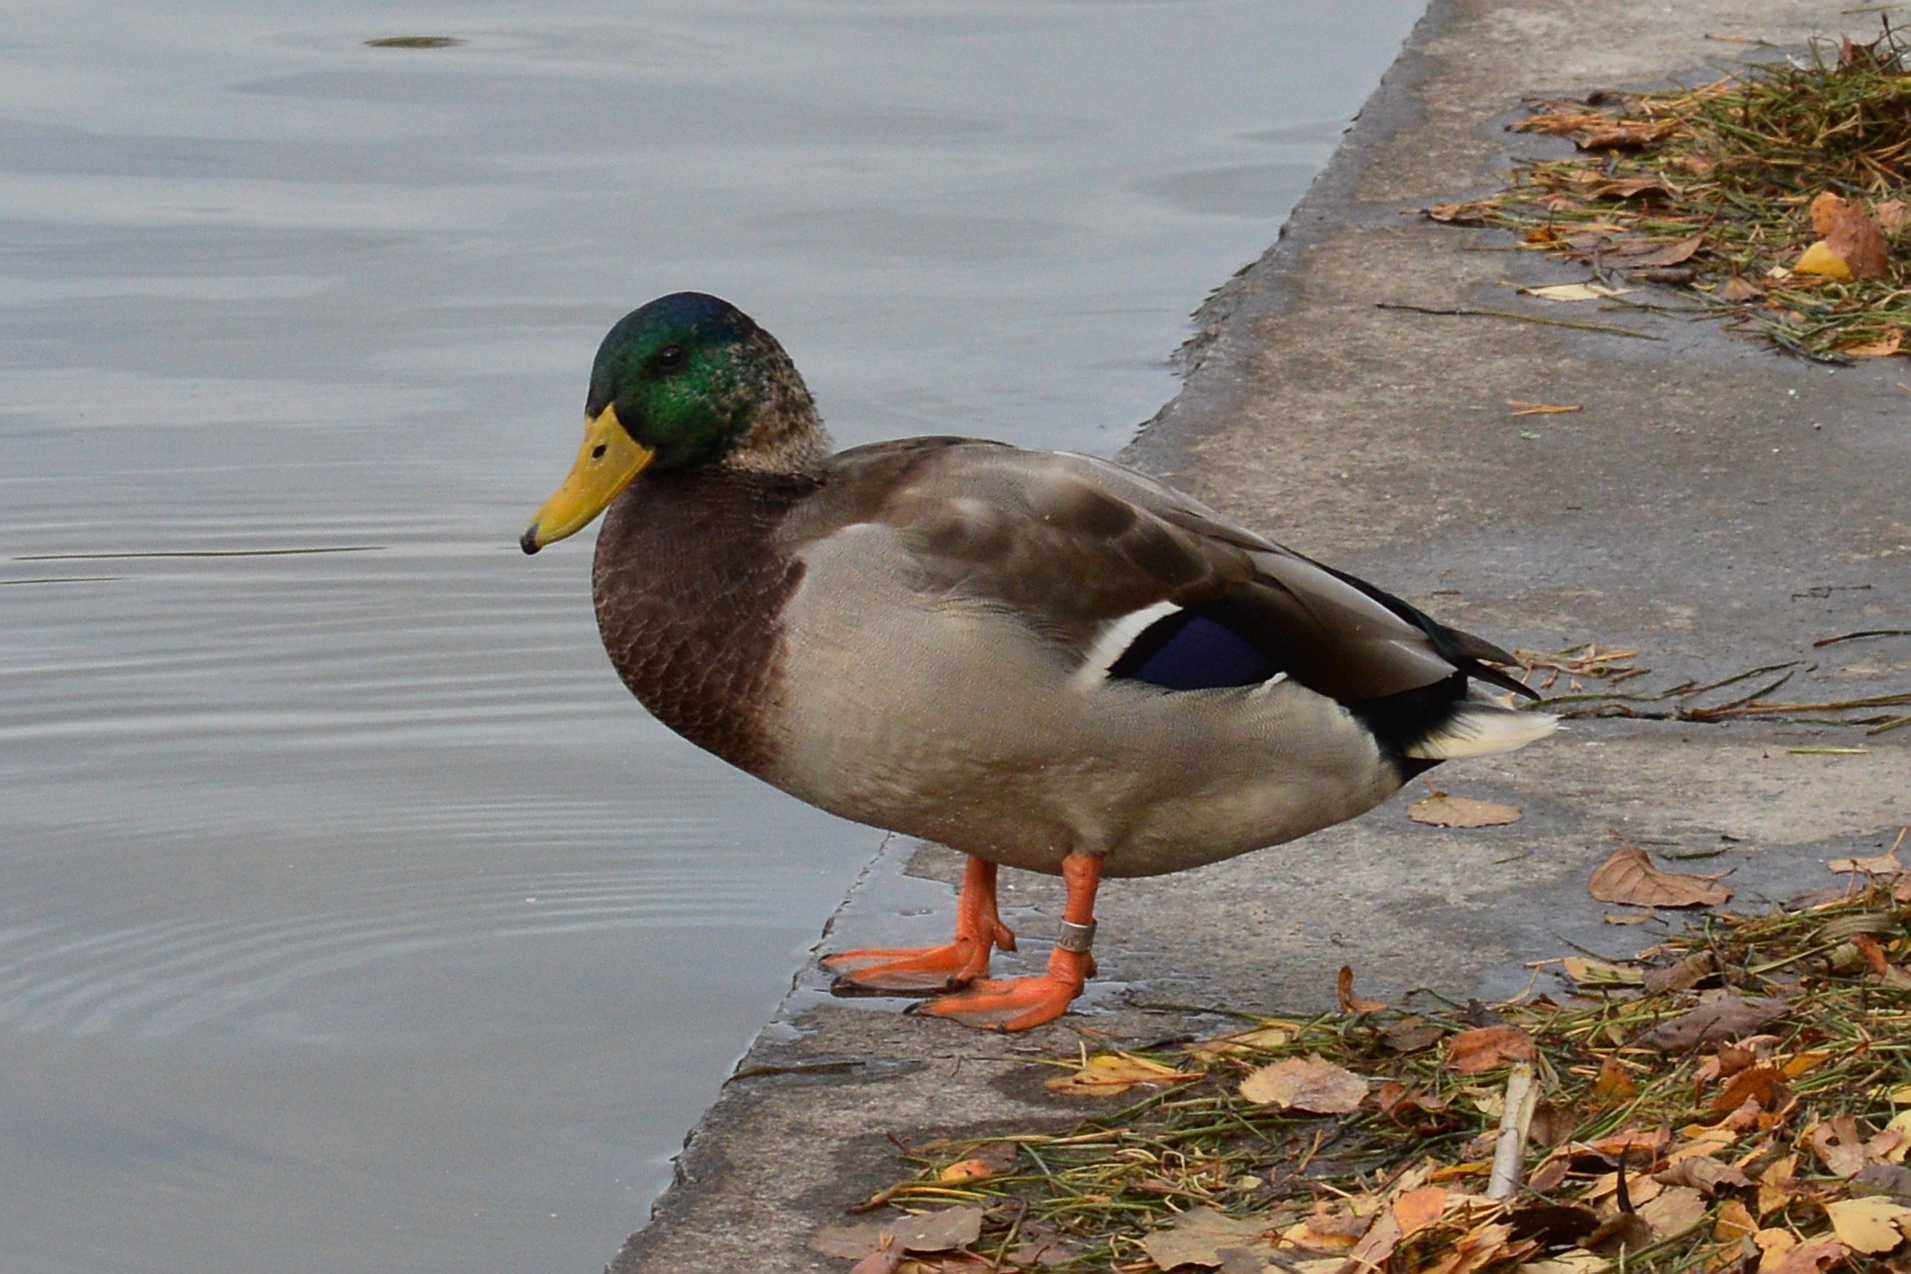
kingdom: Animalia
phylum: Chordata
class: Aves
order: Anseriformes
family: Anatidae
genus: Anas
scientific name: Anas platyrhynchos
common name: Mallard
